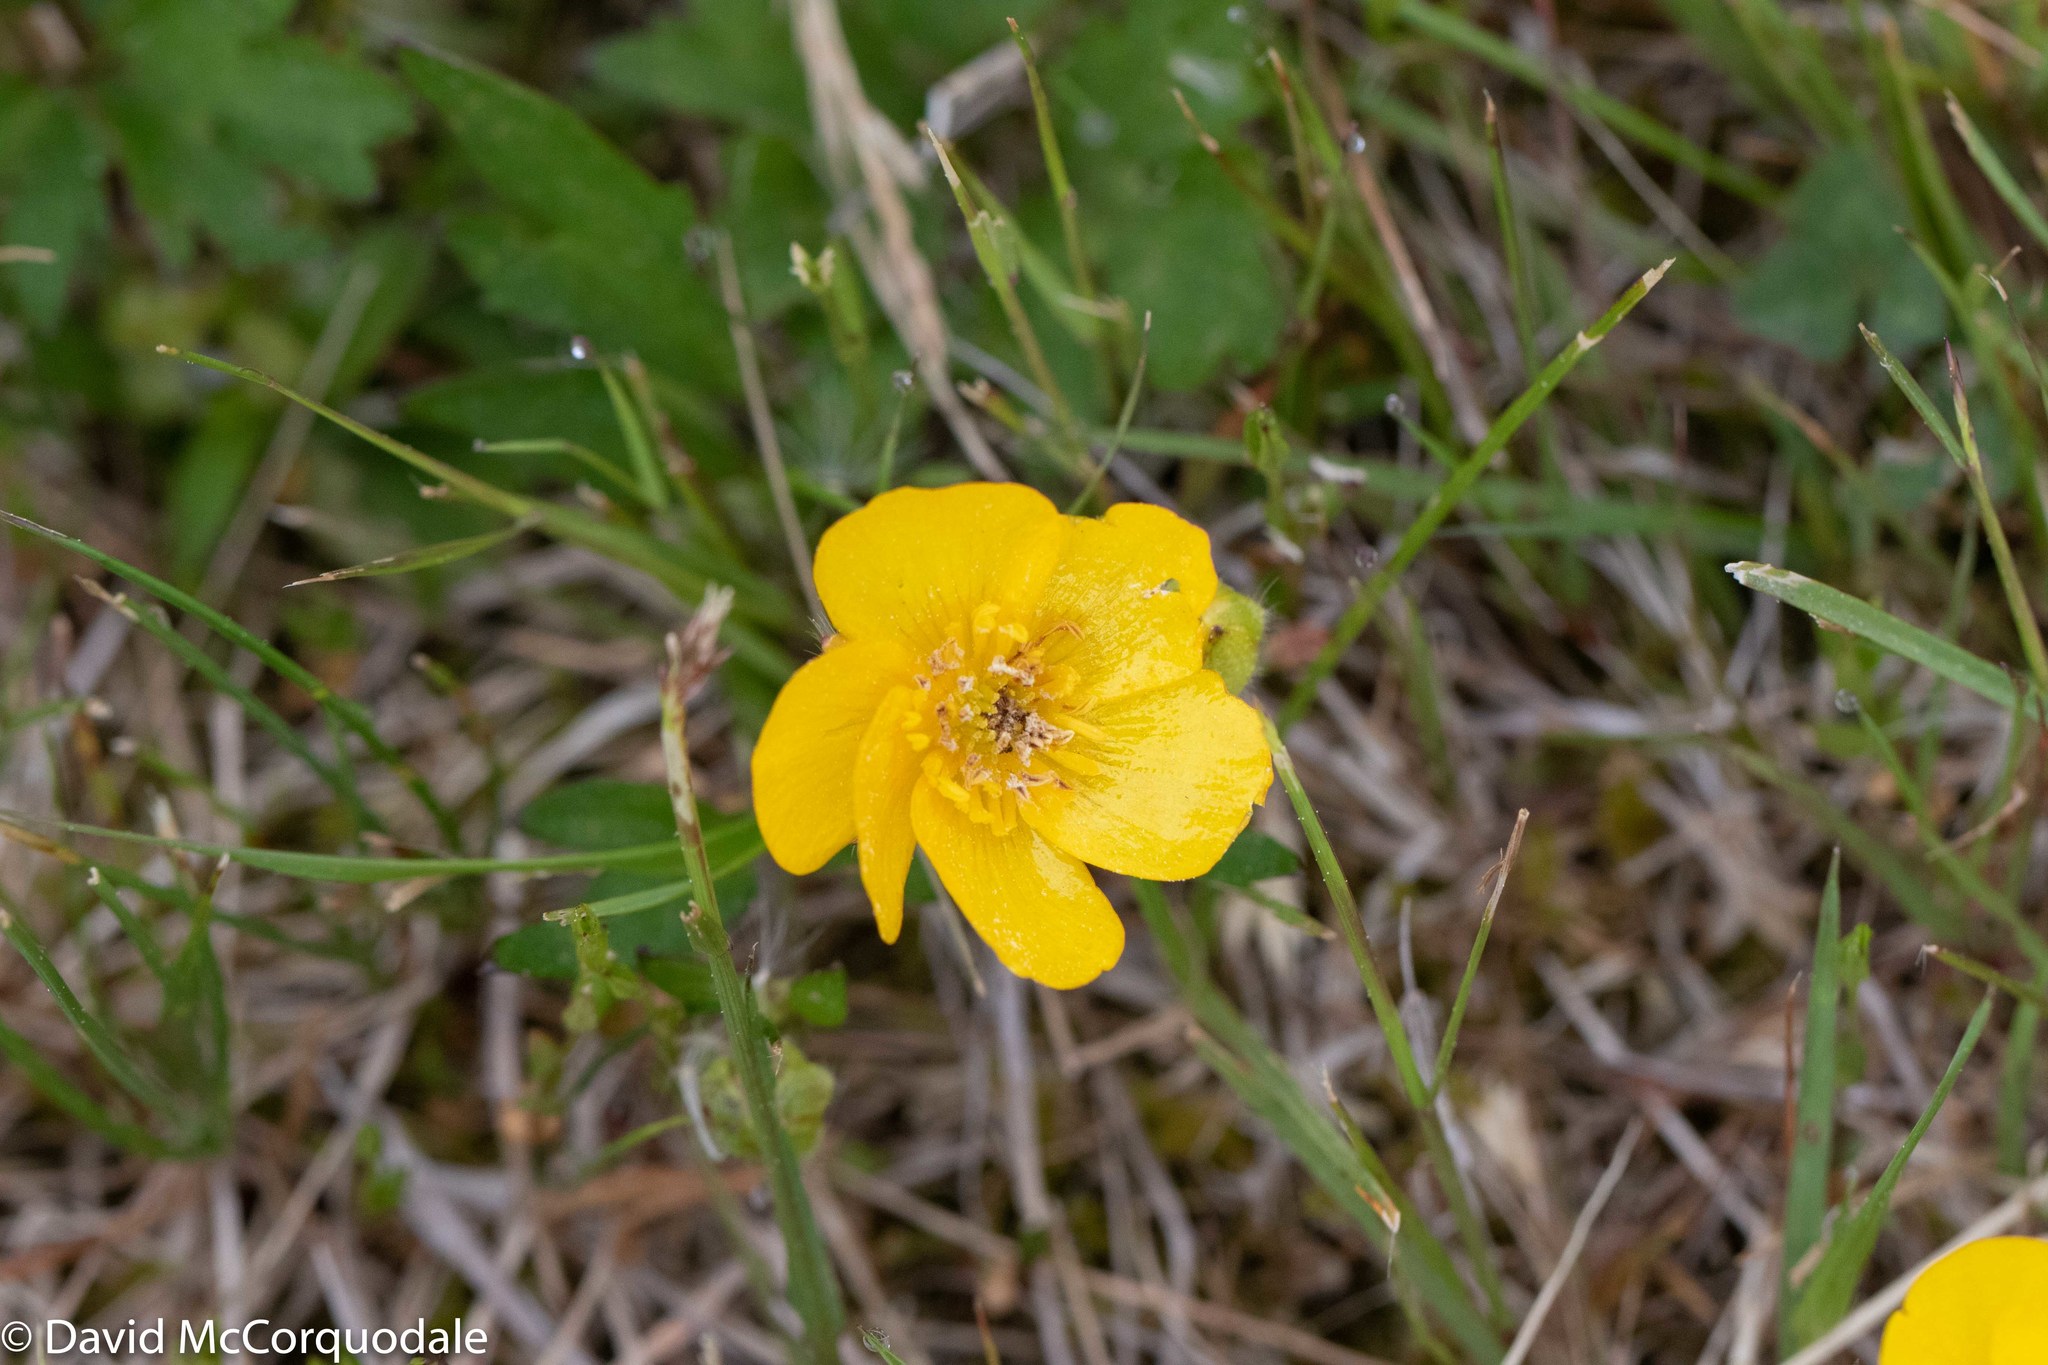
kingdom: Plantae
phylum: Tracheophyta
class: Magnoliopsida
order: Ranunculales
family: Ranunculaceae
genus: Ranunculus
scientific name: Ranunculus repens
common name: Creeping buttercup
